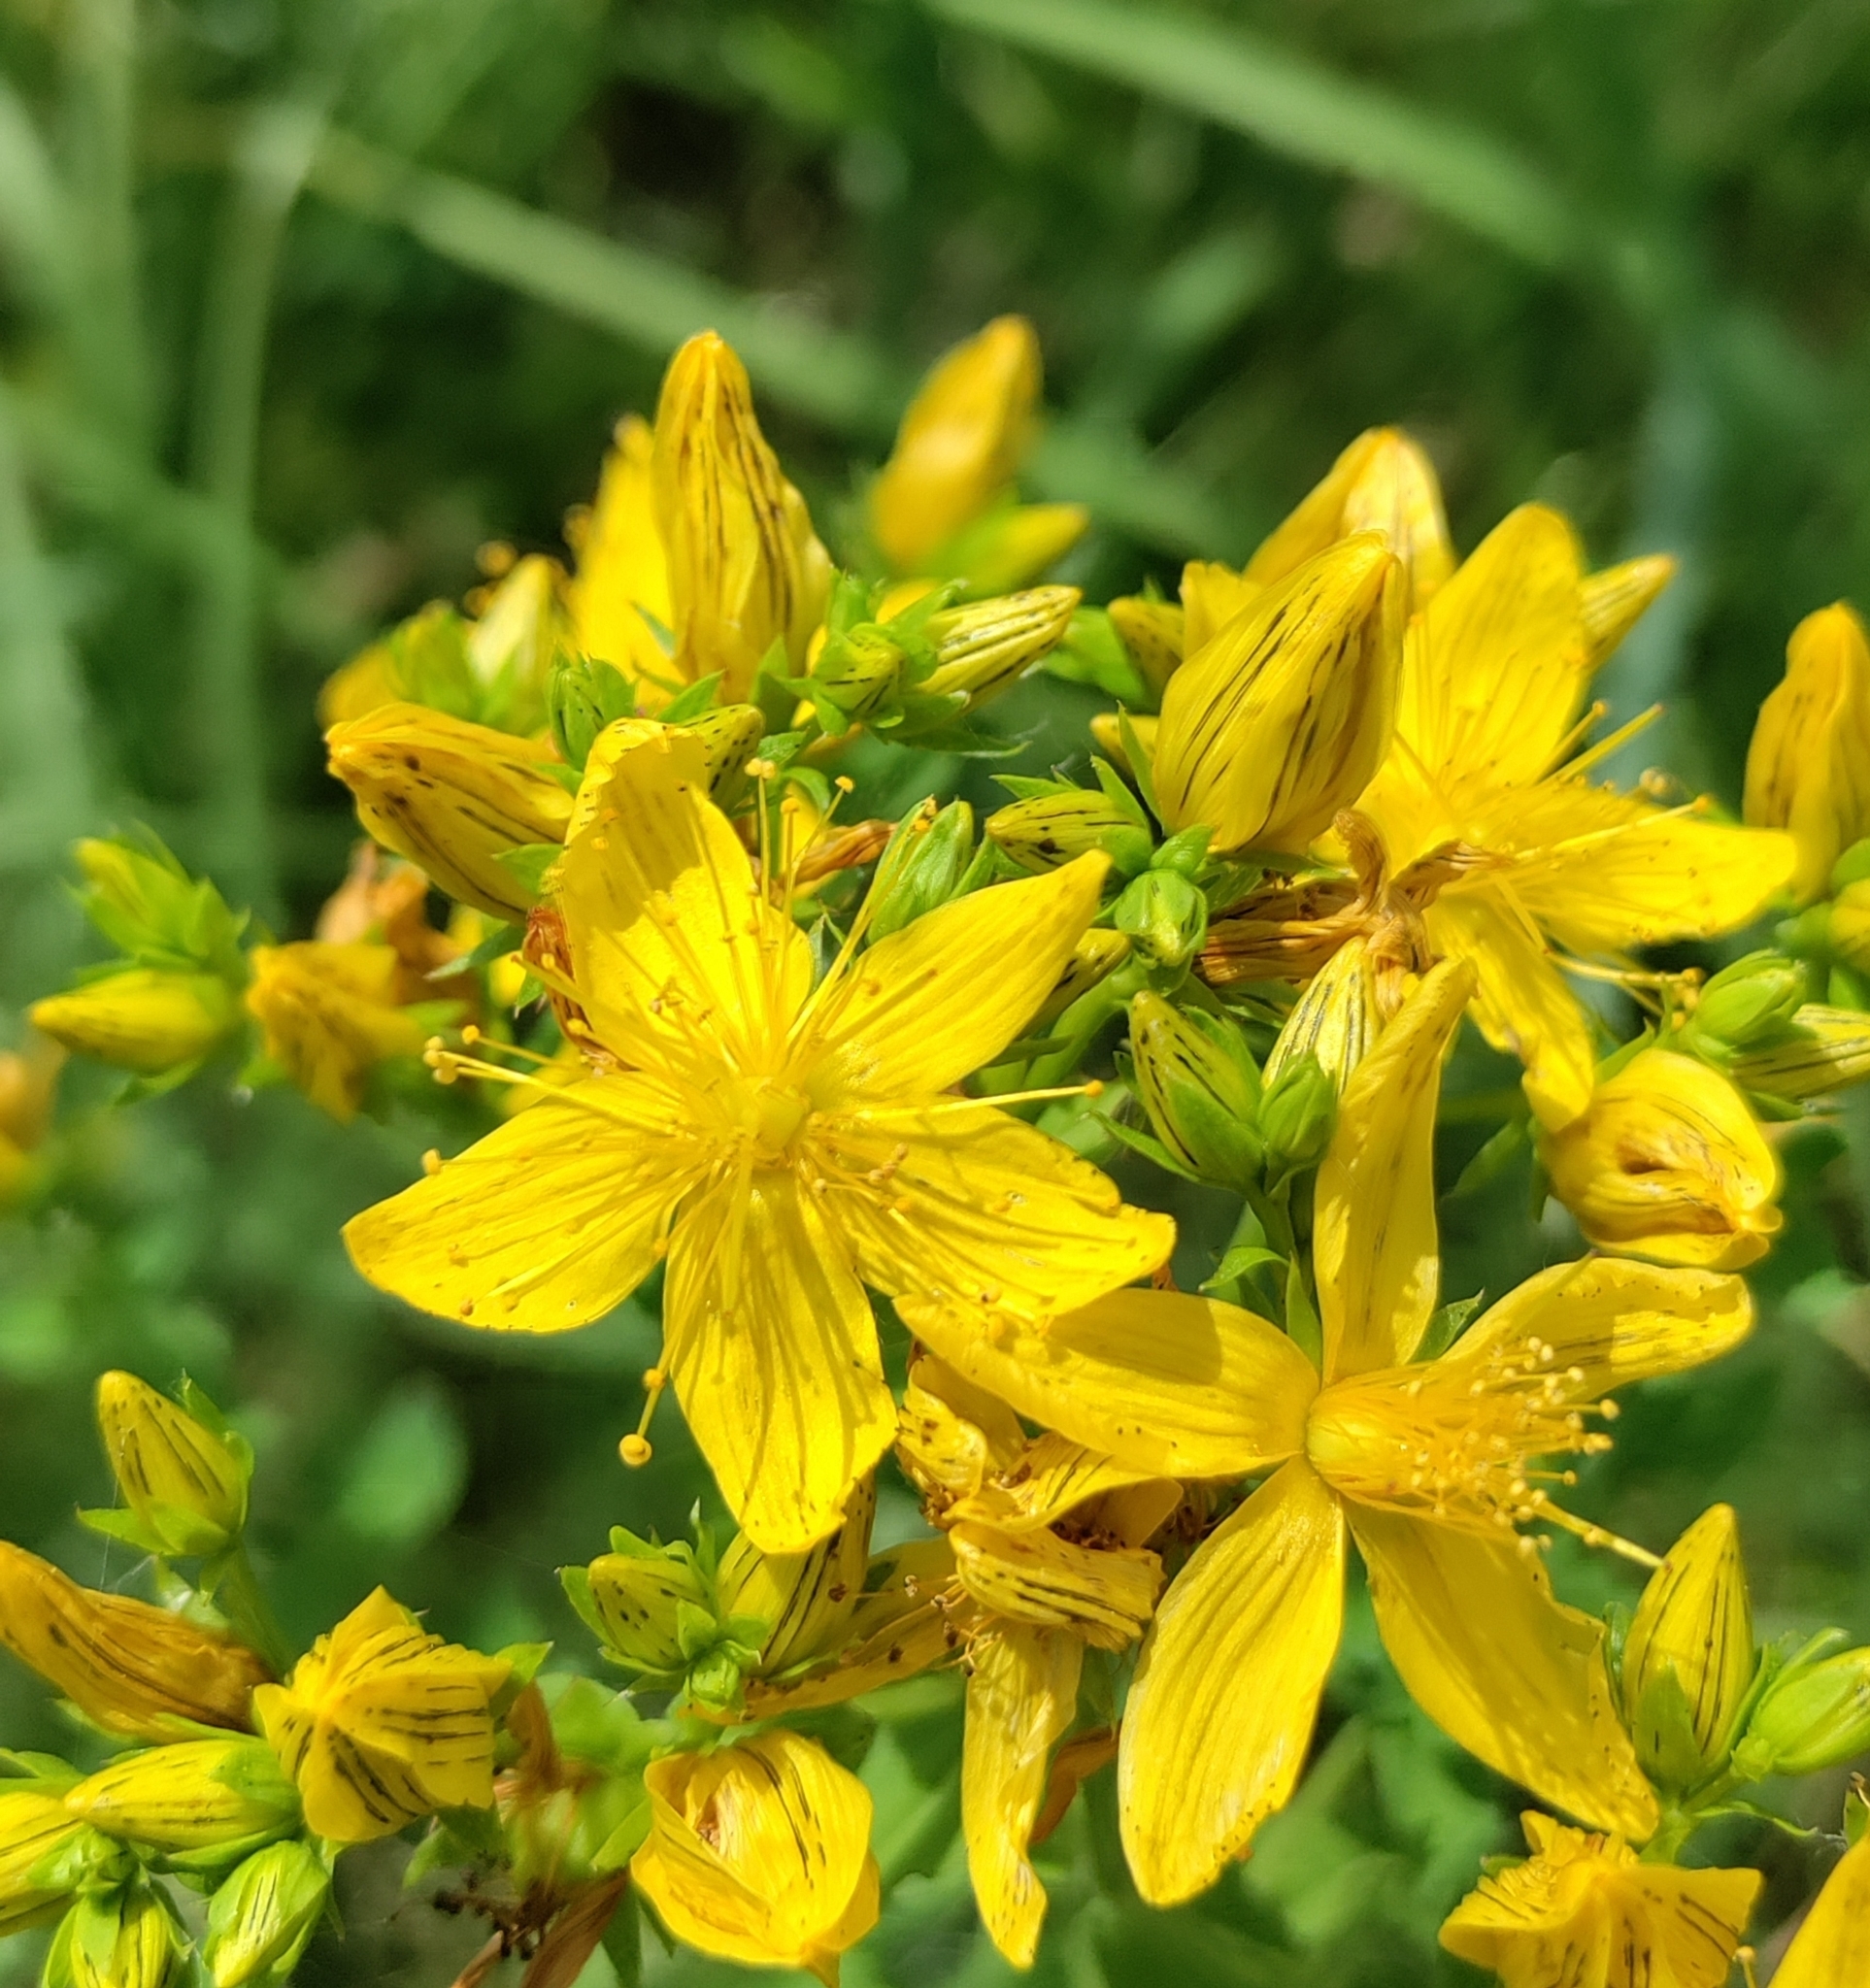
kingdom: Plantae
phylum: Tracheophyta
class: Magnoliopsida
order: Malpighiales
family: Hypericaceae
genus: Hypericum
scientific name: Hypericum desetangsii
